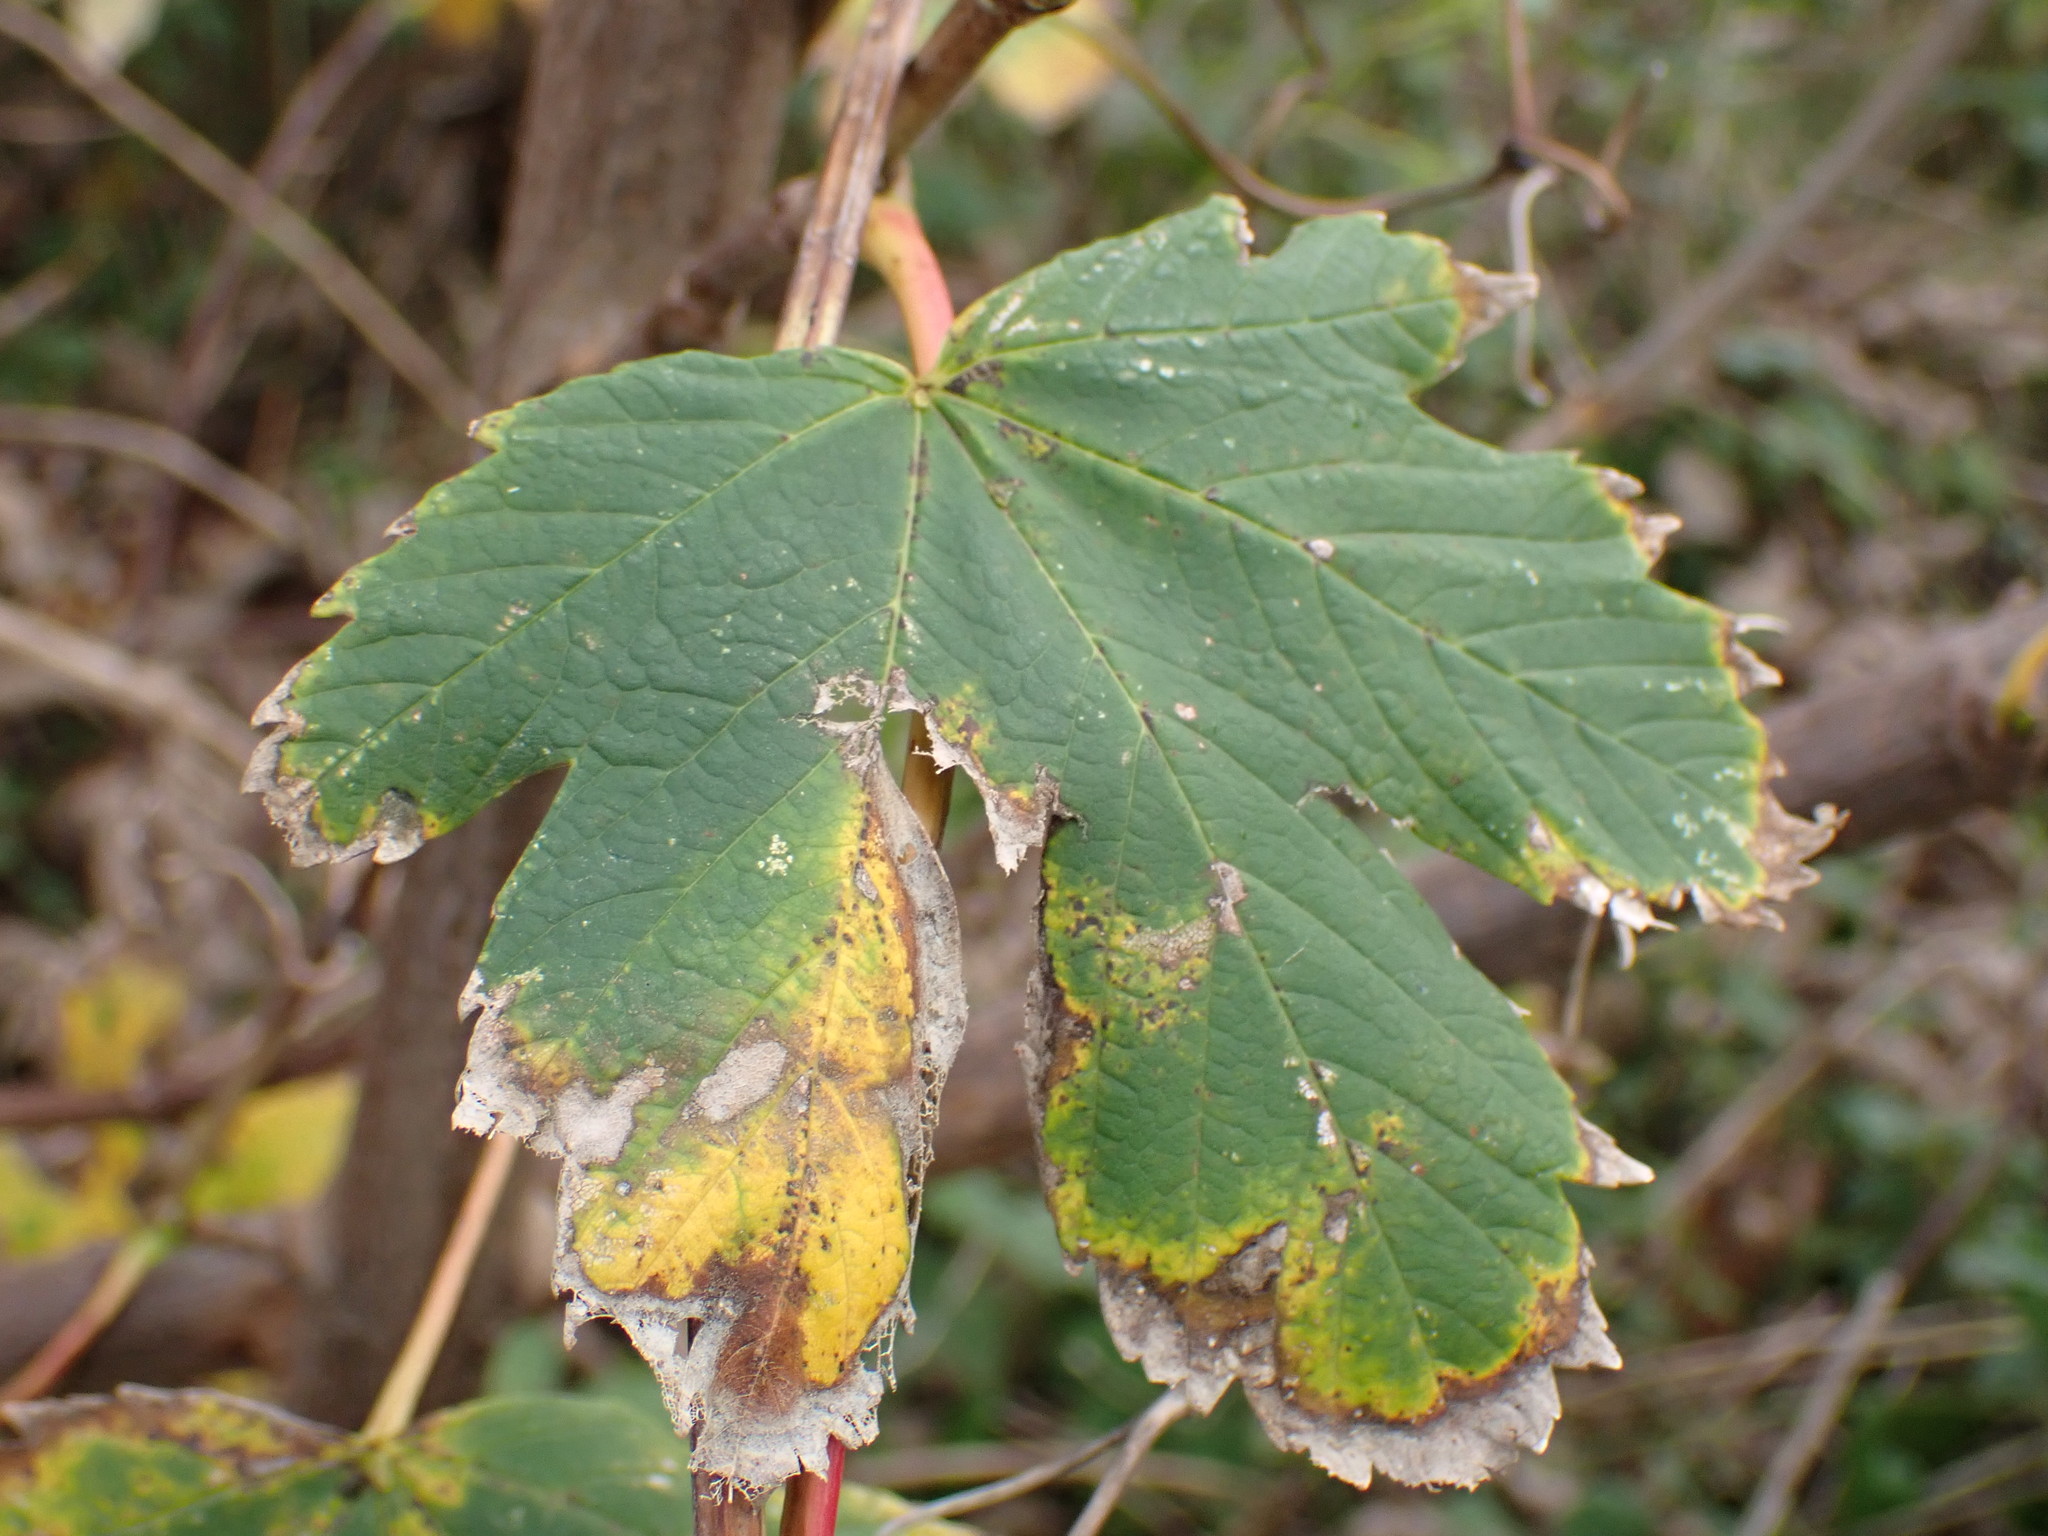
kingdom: Plantae
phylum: Tracheophyta
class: Magnoliopsida
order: Sapindales
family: Sapindaceae
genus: Acer
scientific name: Acer pseudoplatanus
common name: Sycamore
